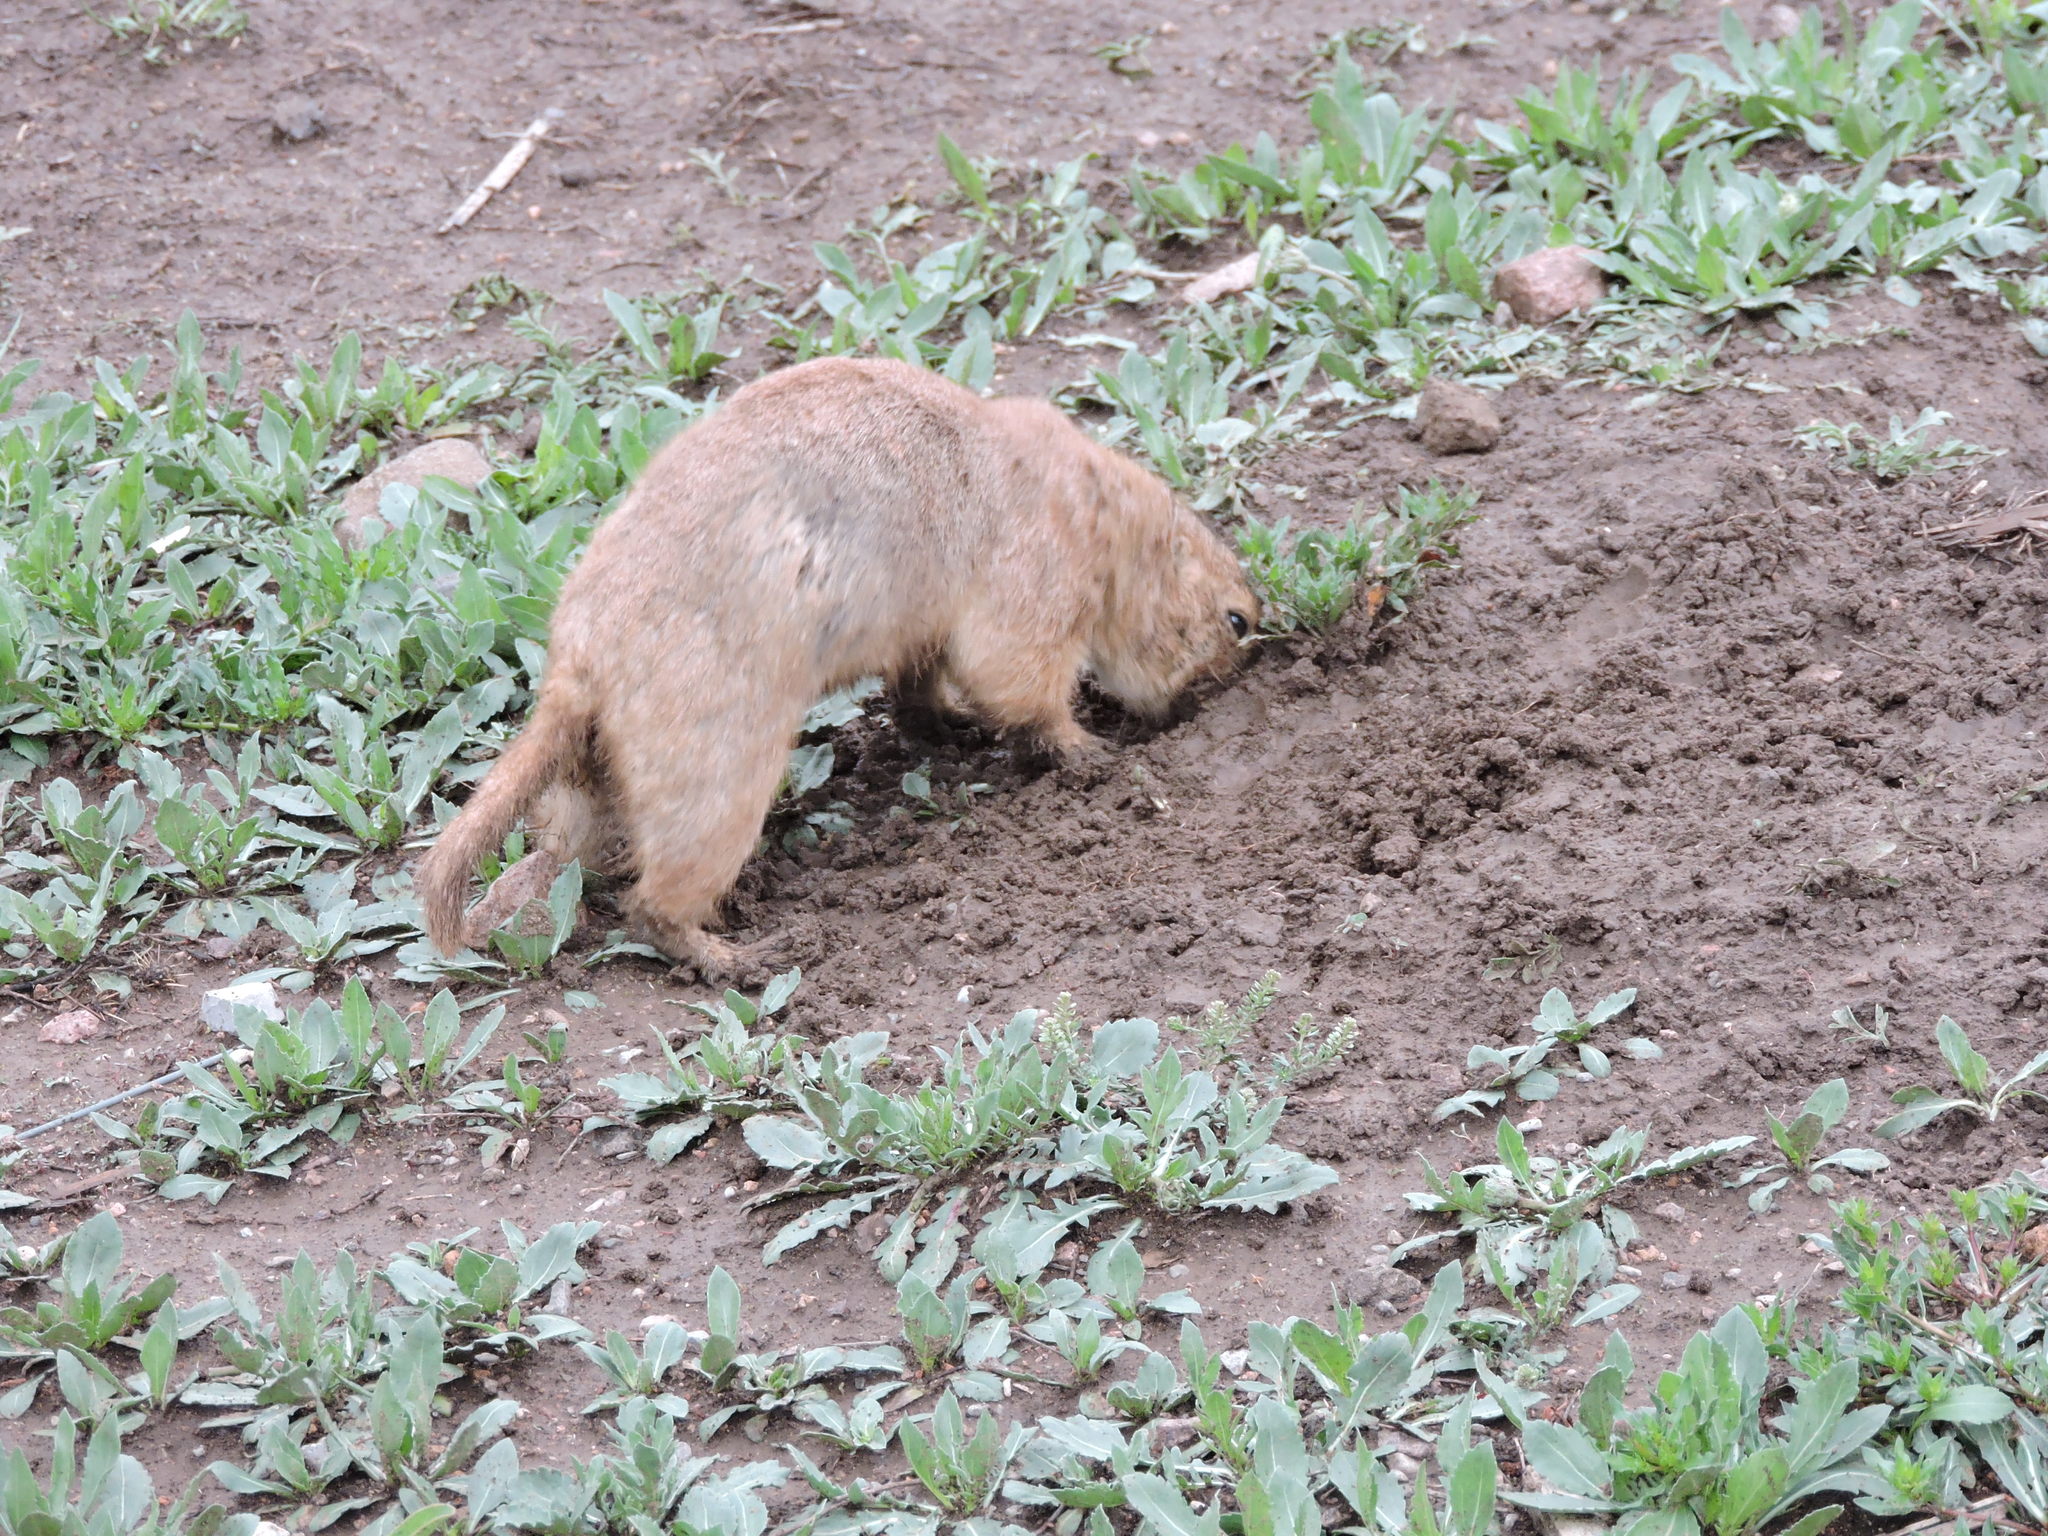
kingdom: Animalia
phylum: Chordata
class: Mammalia
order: Rodentia
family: Sciuridae
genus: Cynomys
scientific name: Cynomys ludovicianus
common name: Black-tailed prairie dog
